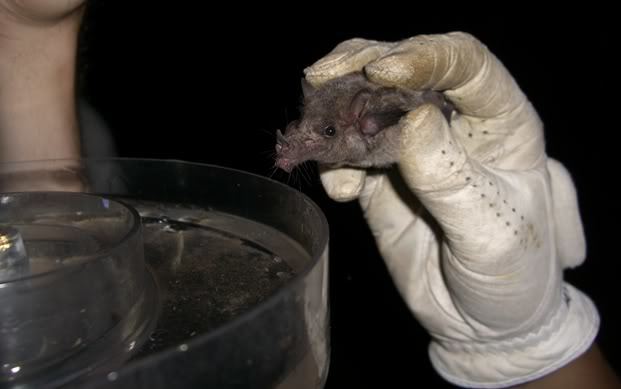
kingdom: Animalia
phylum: Chordata
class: Mammalia
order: Chiroptera
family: Phyllostomidae
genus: Choeronycteris
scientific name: Choeronycteris mexicana
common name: Mexican long-tongued bat
